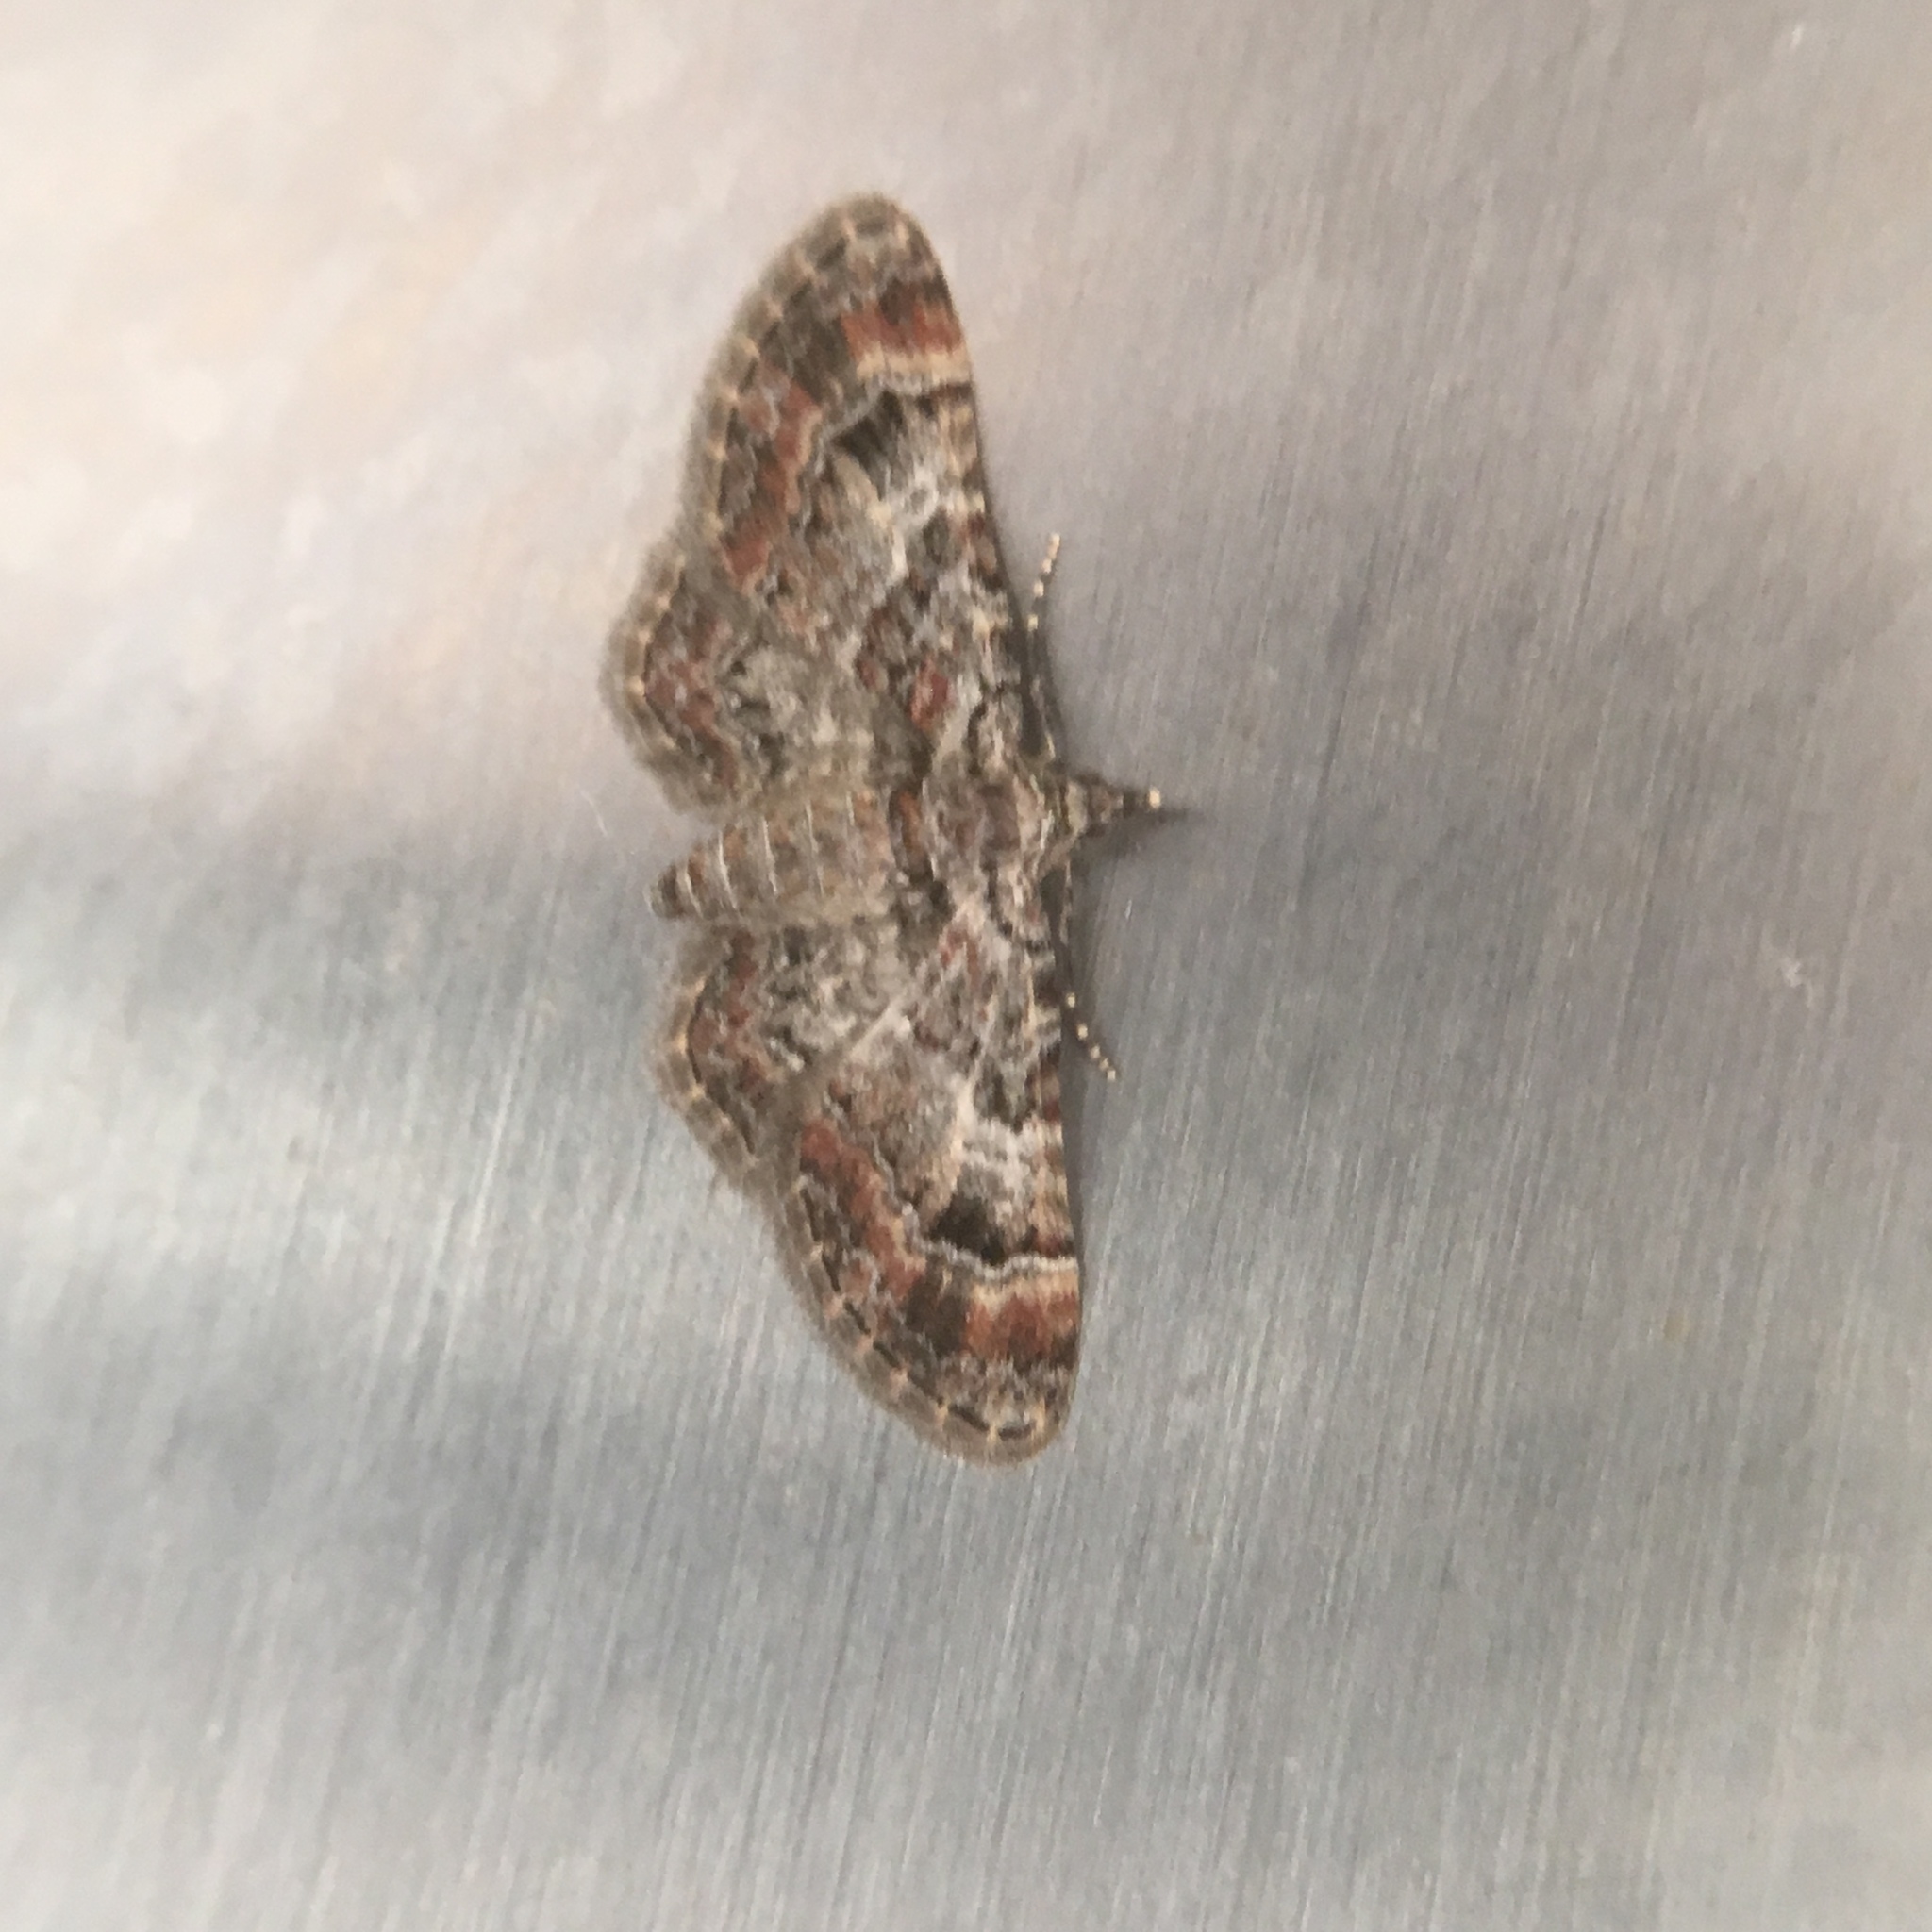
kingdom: Animalia
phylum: Arthropoda
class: Insecta
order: Lepidoptera
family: Geometridae
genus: Gymnoscelis
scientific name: Gymnoscelis rufifasciata
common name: Double-striped pug
